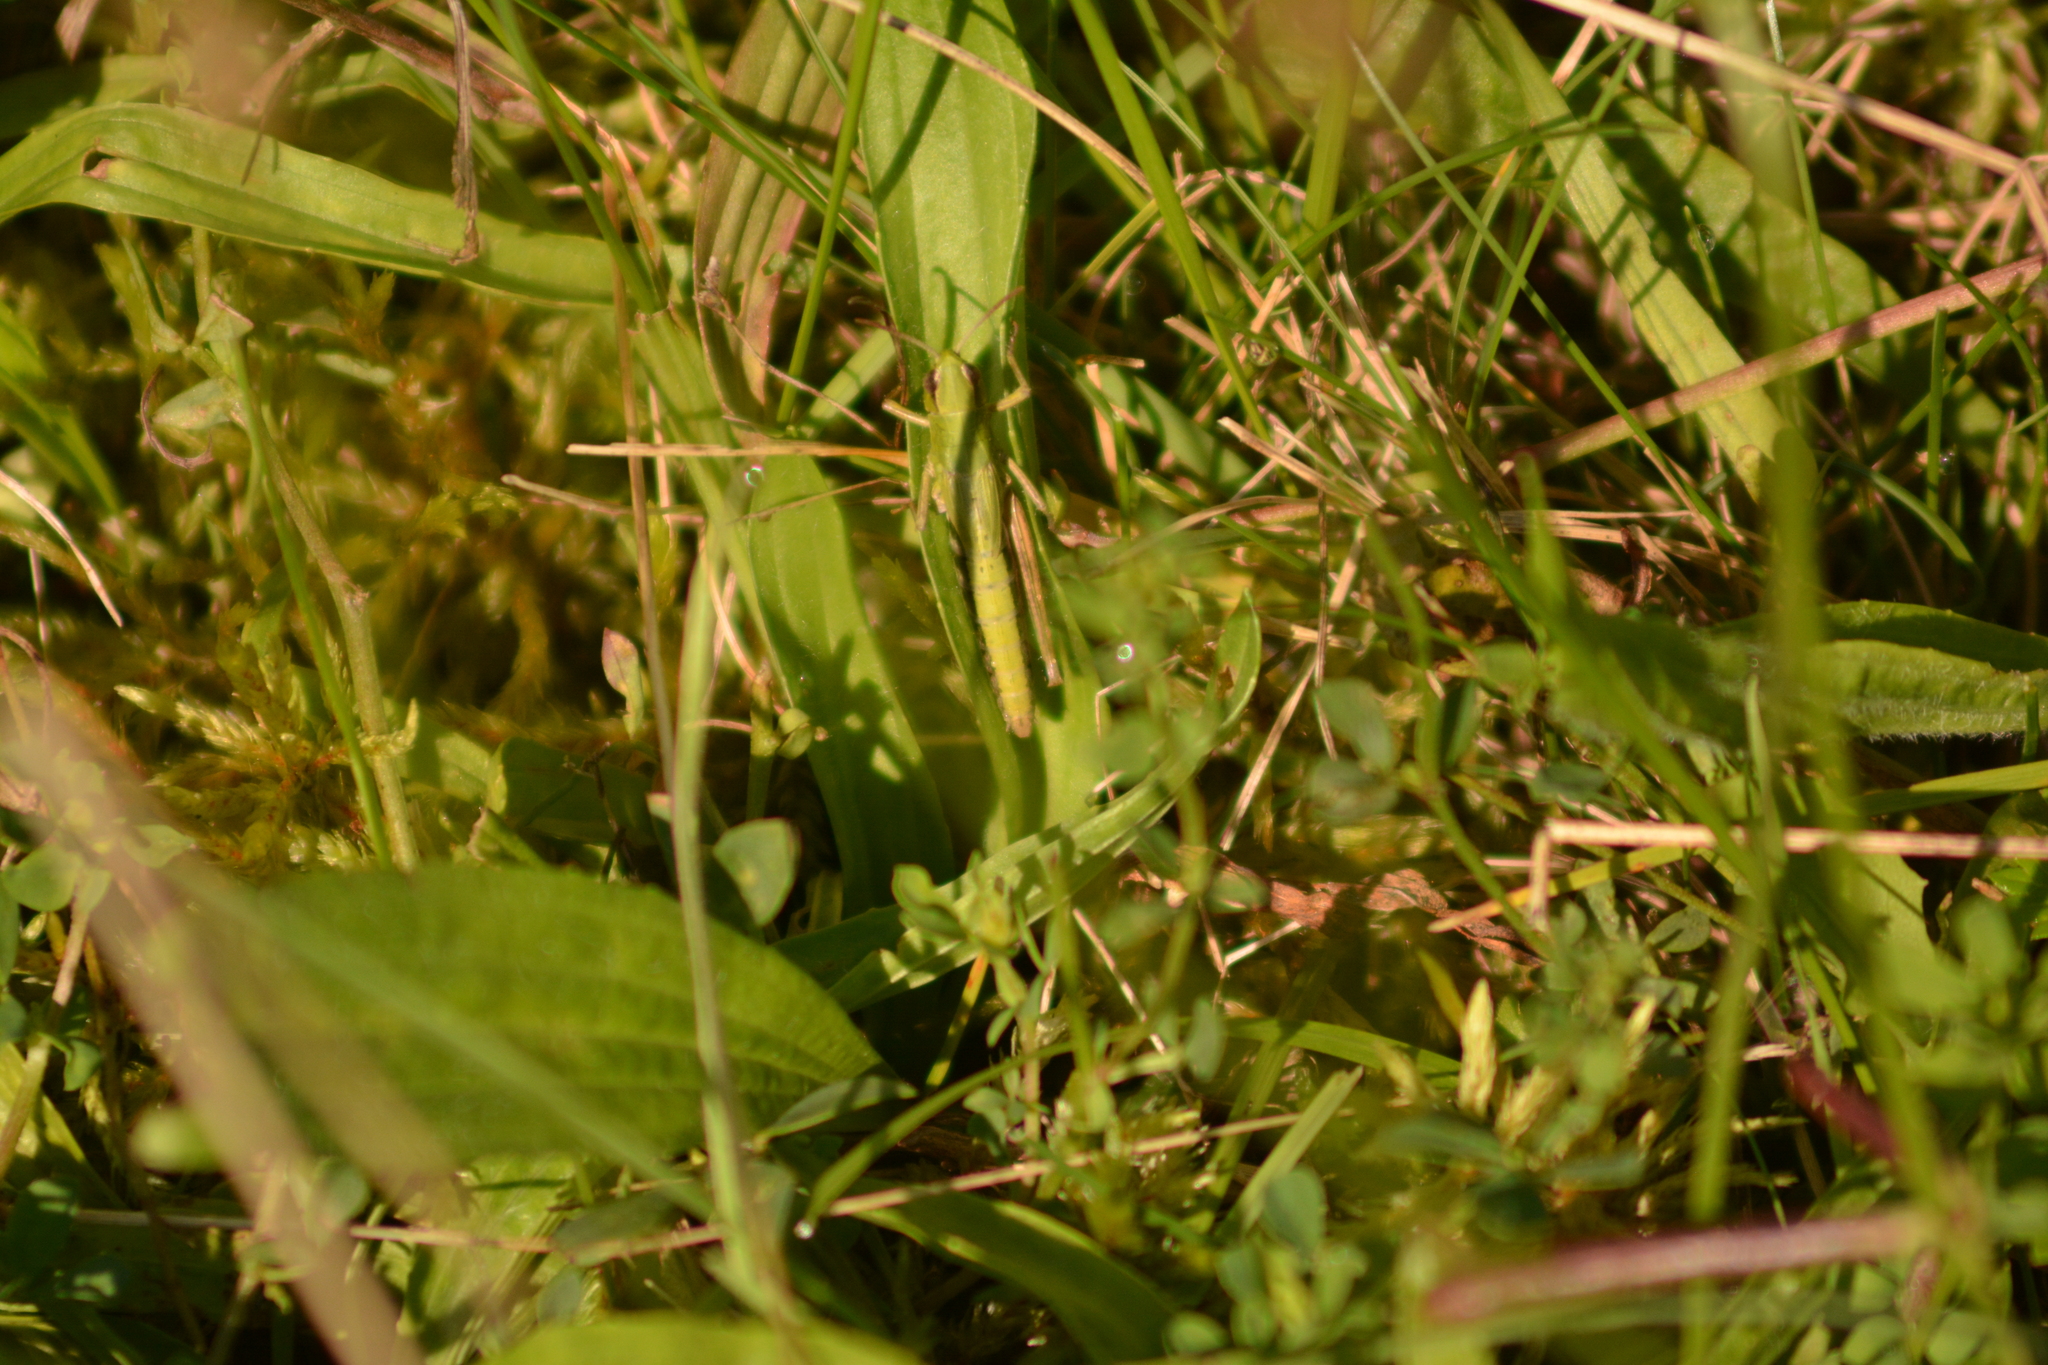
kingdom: Animalia
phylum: Arthropoda
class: Insecta
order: Orthoptera
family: Acrididae
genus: Pseudochorthippus
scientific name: Pseudochorthippus parallelus
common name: Meadow grasshopper
